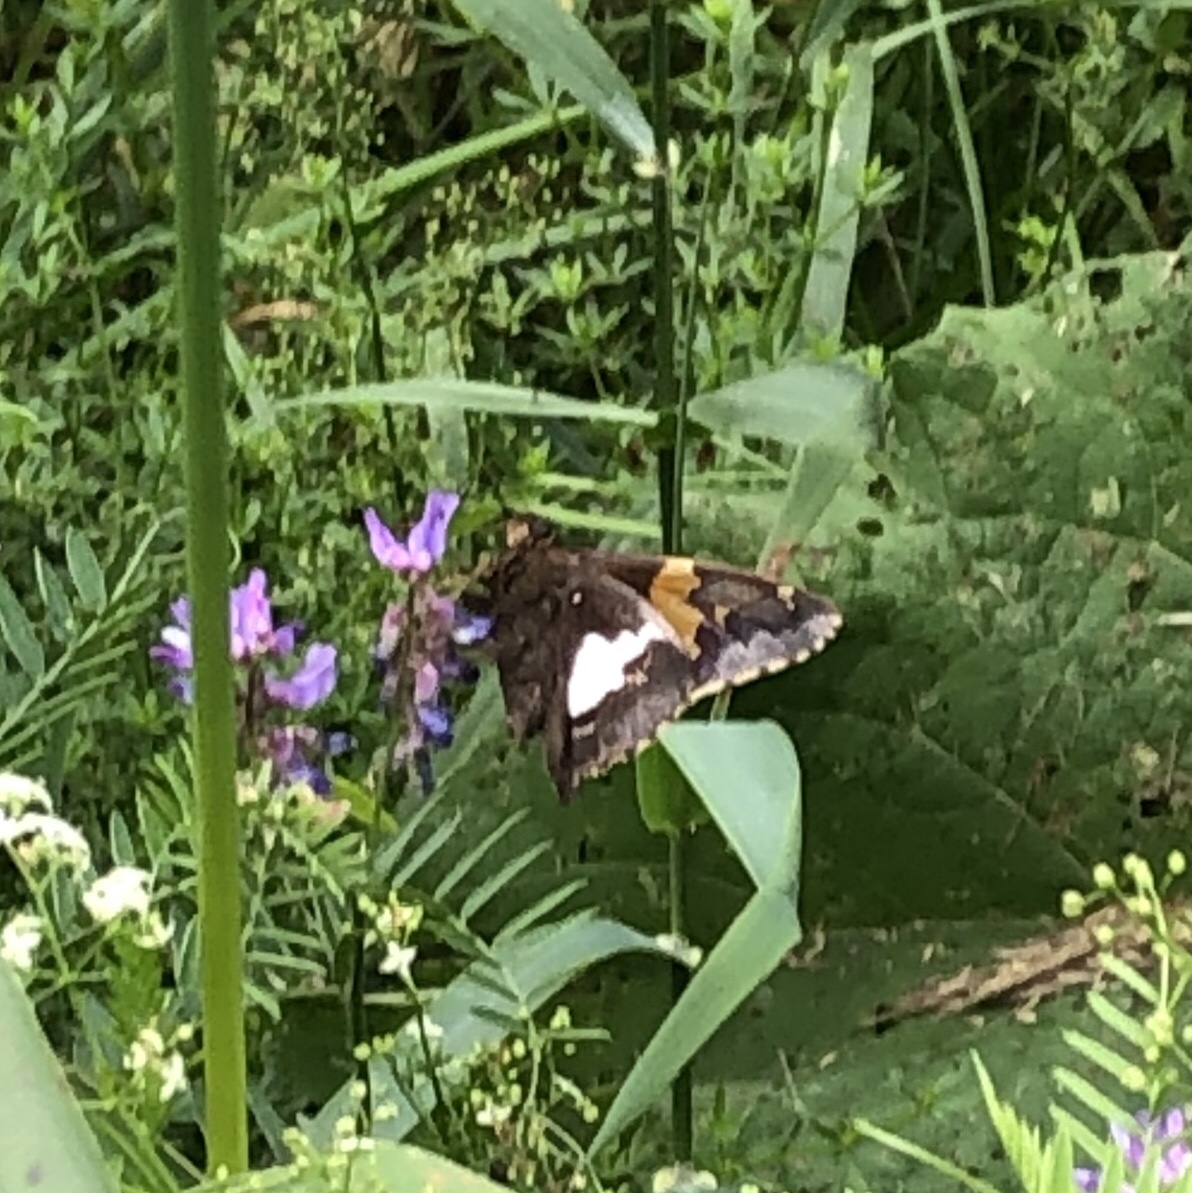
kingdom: Animalia
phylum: Arthropoda
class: Insecta
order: Lepidoptera
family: Hesperiidae
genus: Epargyreus
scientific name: Epargyreus clarus
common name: Silver-spotted skipper
